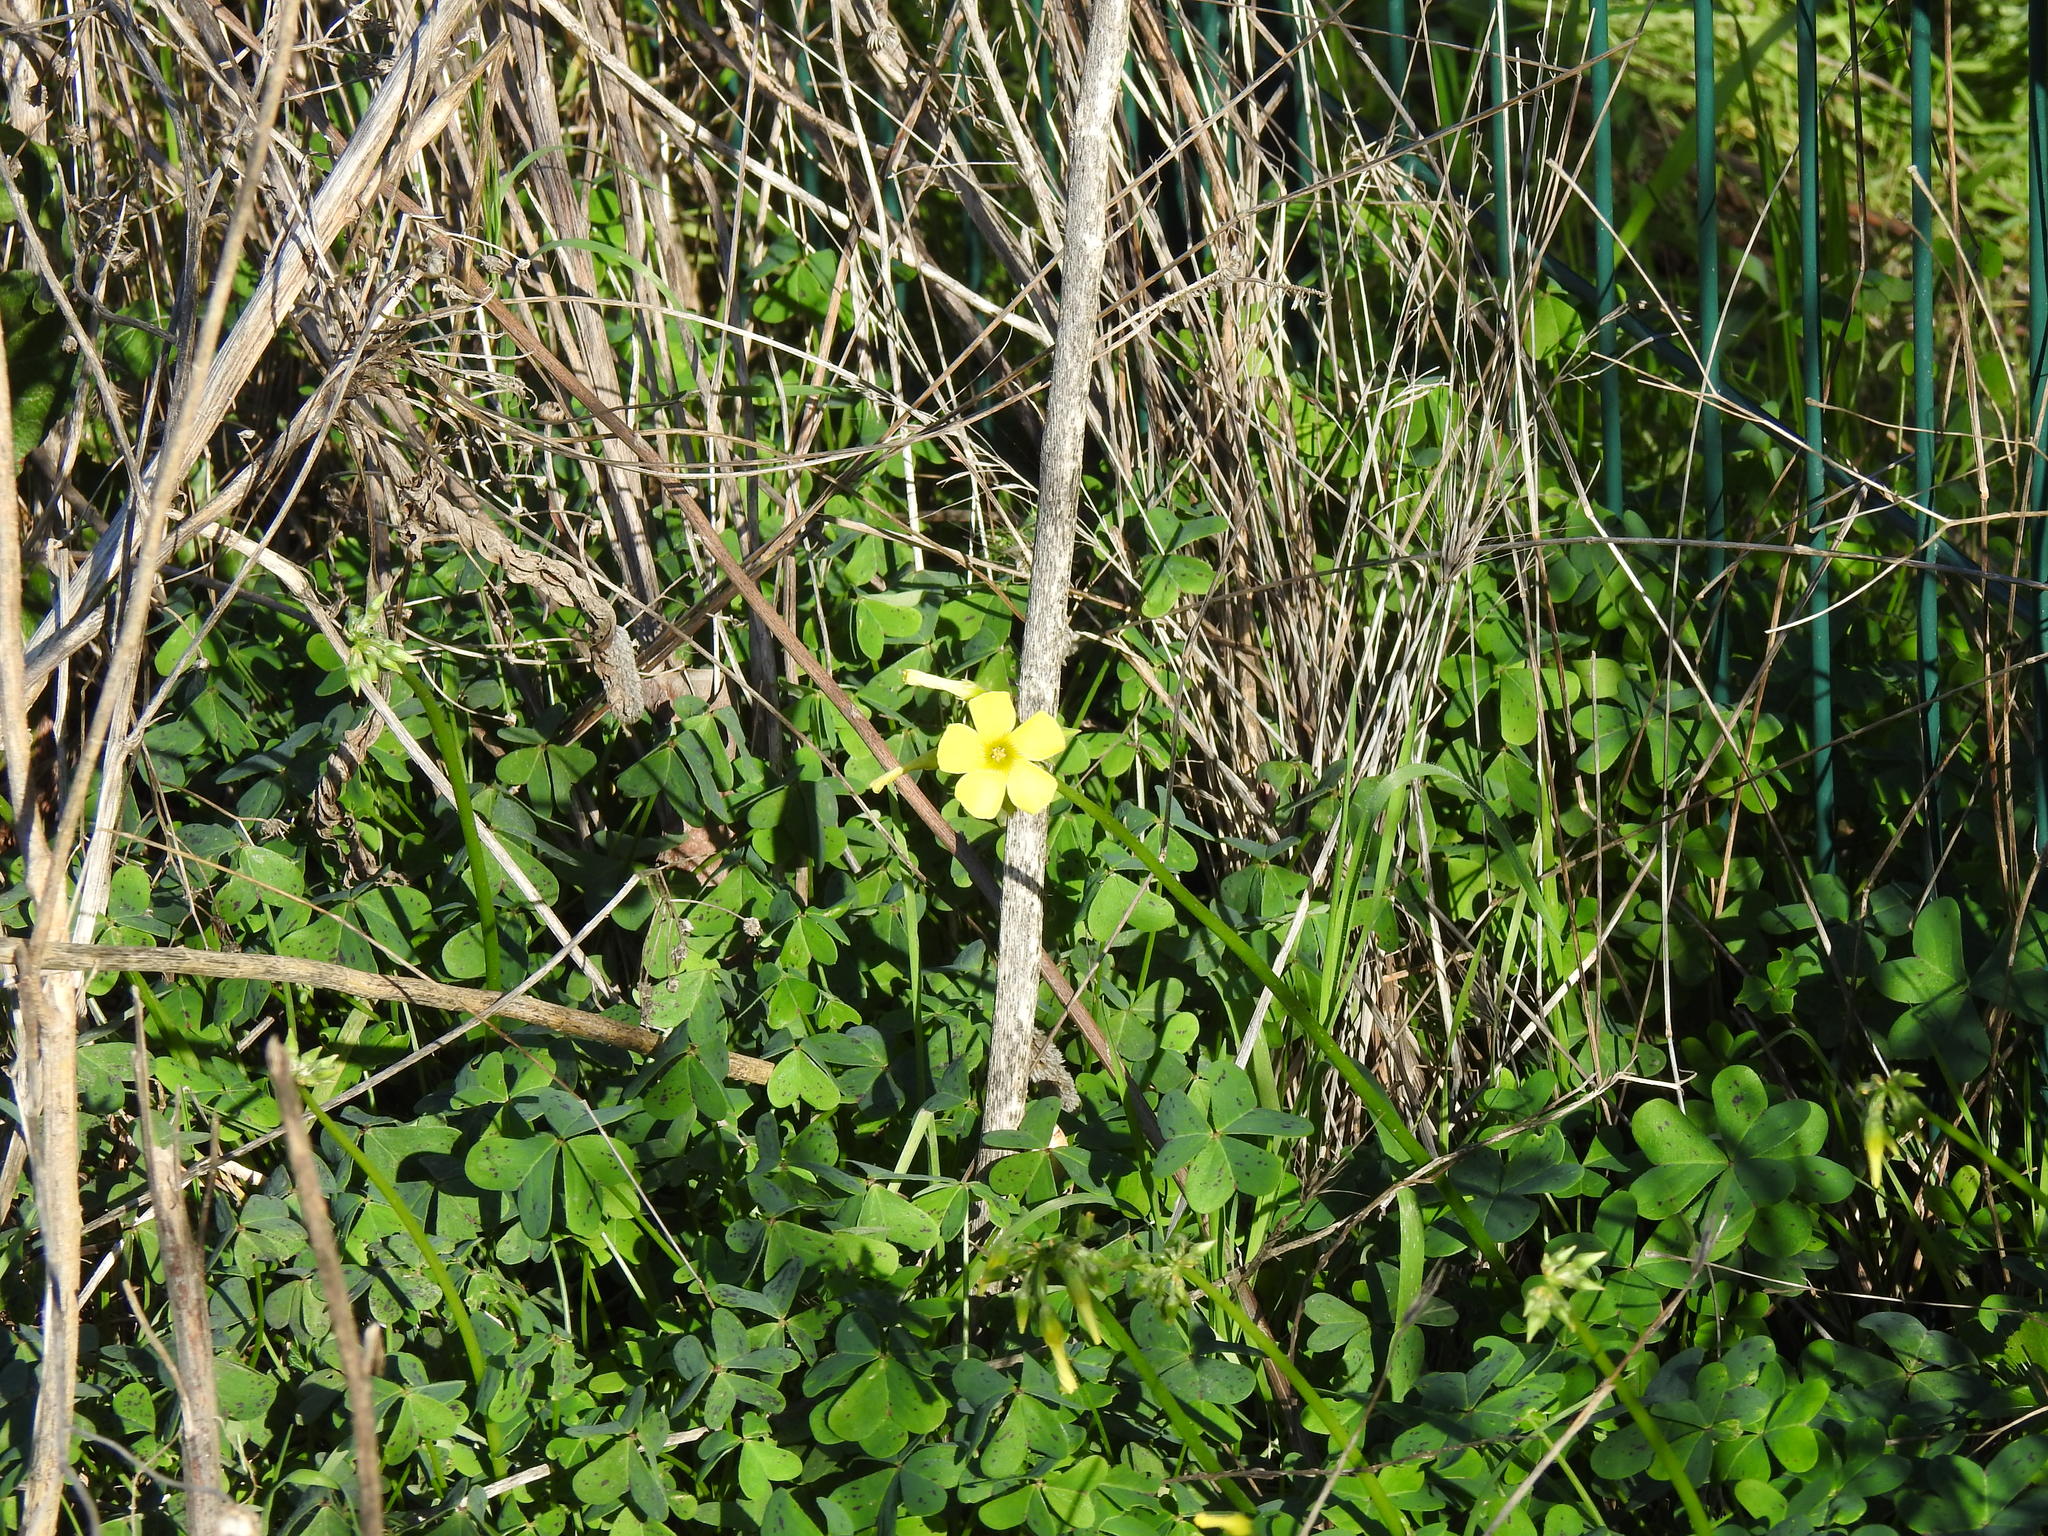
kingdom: Plantae
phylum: Tracheophyta
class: Magnoliopsida
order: Oxalidales
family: Oxalidaceae
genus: Oxalis
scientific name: Oxalis pes-caprae
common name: Bermuda-buttercup
